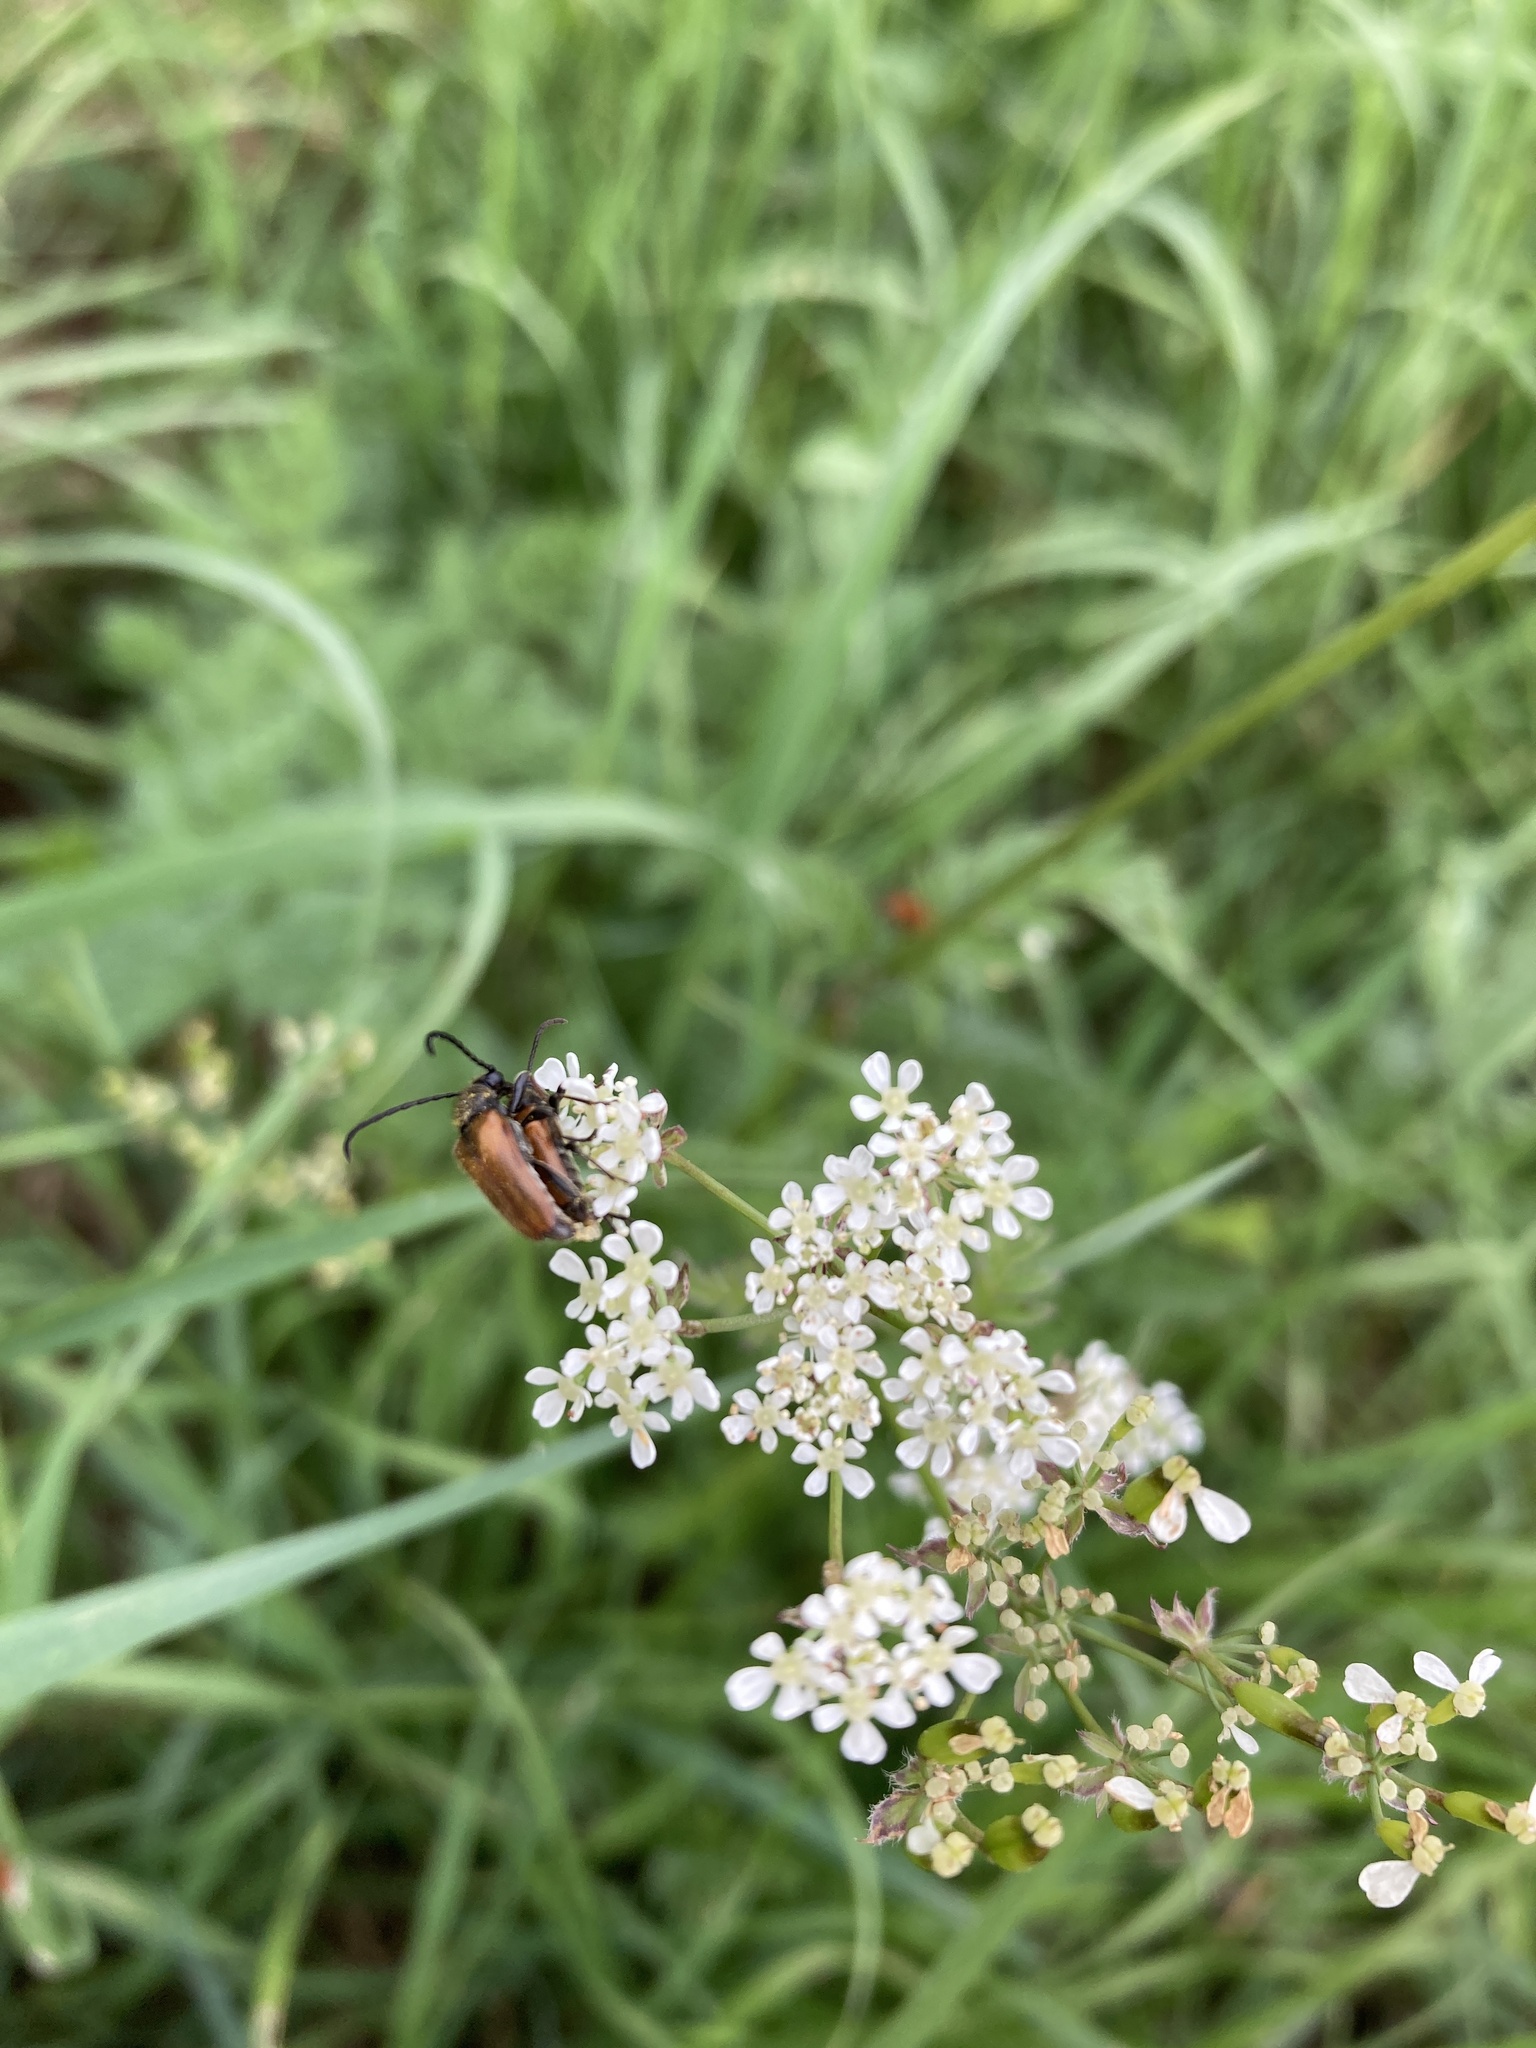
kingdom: Animalia
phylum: Arthropoda
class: Insecta
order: Coleoptera
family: Cerambycidae
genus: Pseudovadonia
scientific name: Pseudovadonia livida
